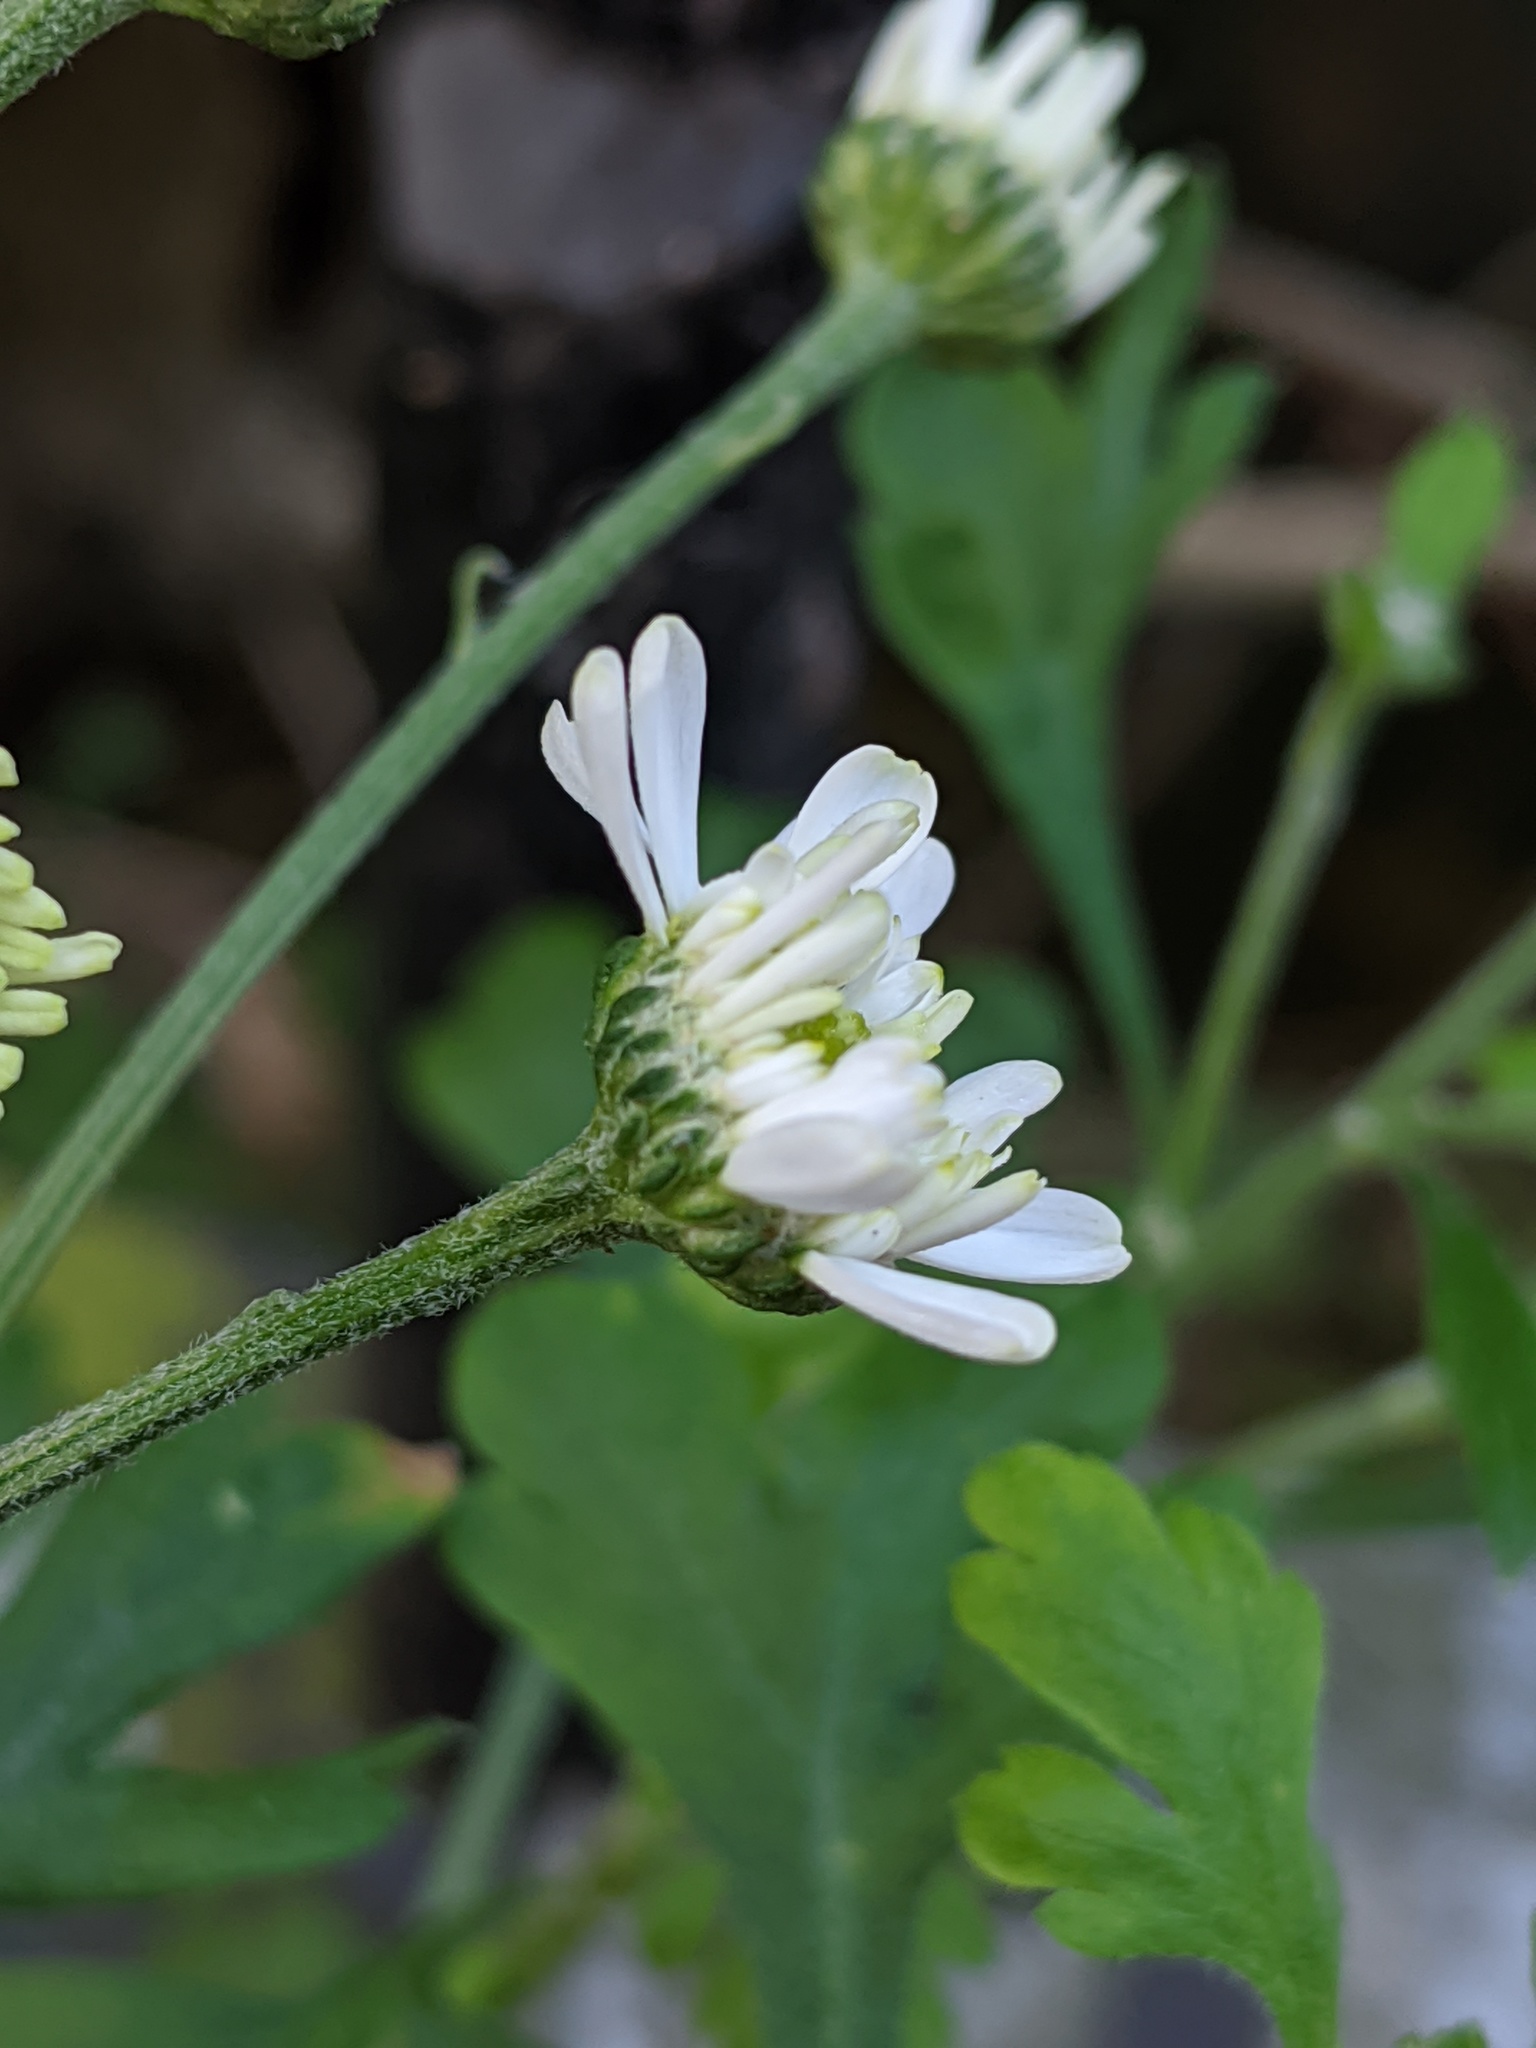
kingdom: Plantae
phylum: Tracheophyta
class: Magnoliopsida
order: Asterales
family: Asteraceae
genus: Tanacetum
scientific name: Tanacetum parthenium
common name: Feverfew
